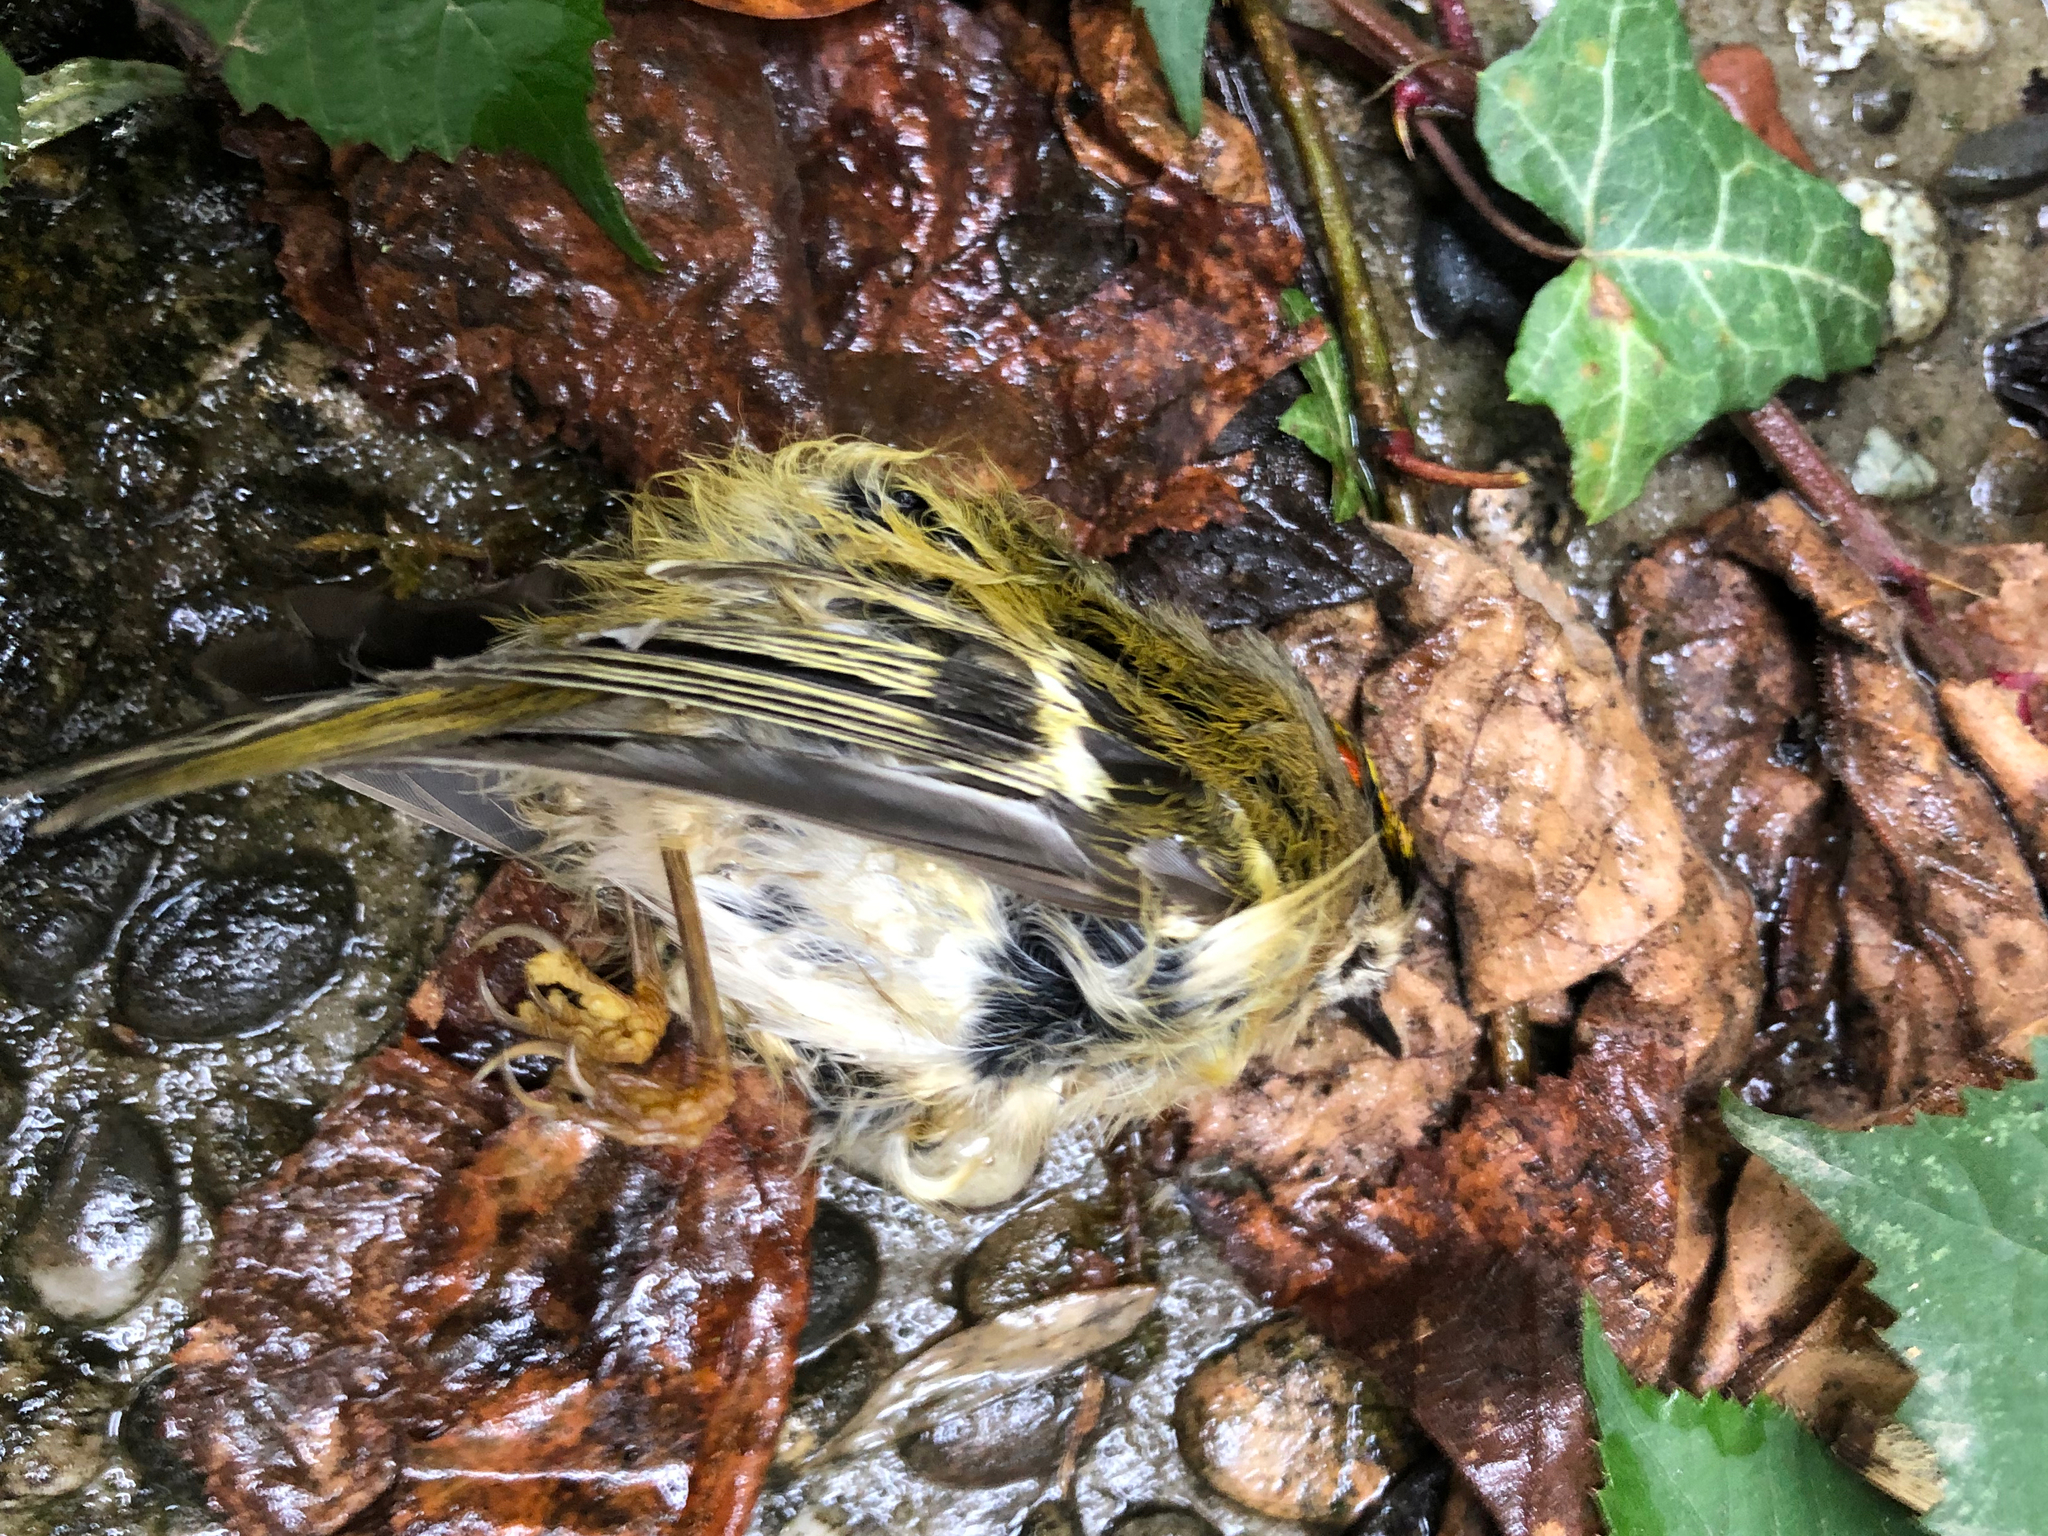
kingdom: Animalia
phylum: Chordata
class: Aves
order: Passeriformes
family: Regulidae
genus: Regulus
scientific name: Regulus regulus
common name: Goldcrest
